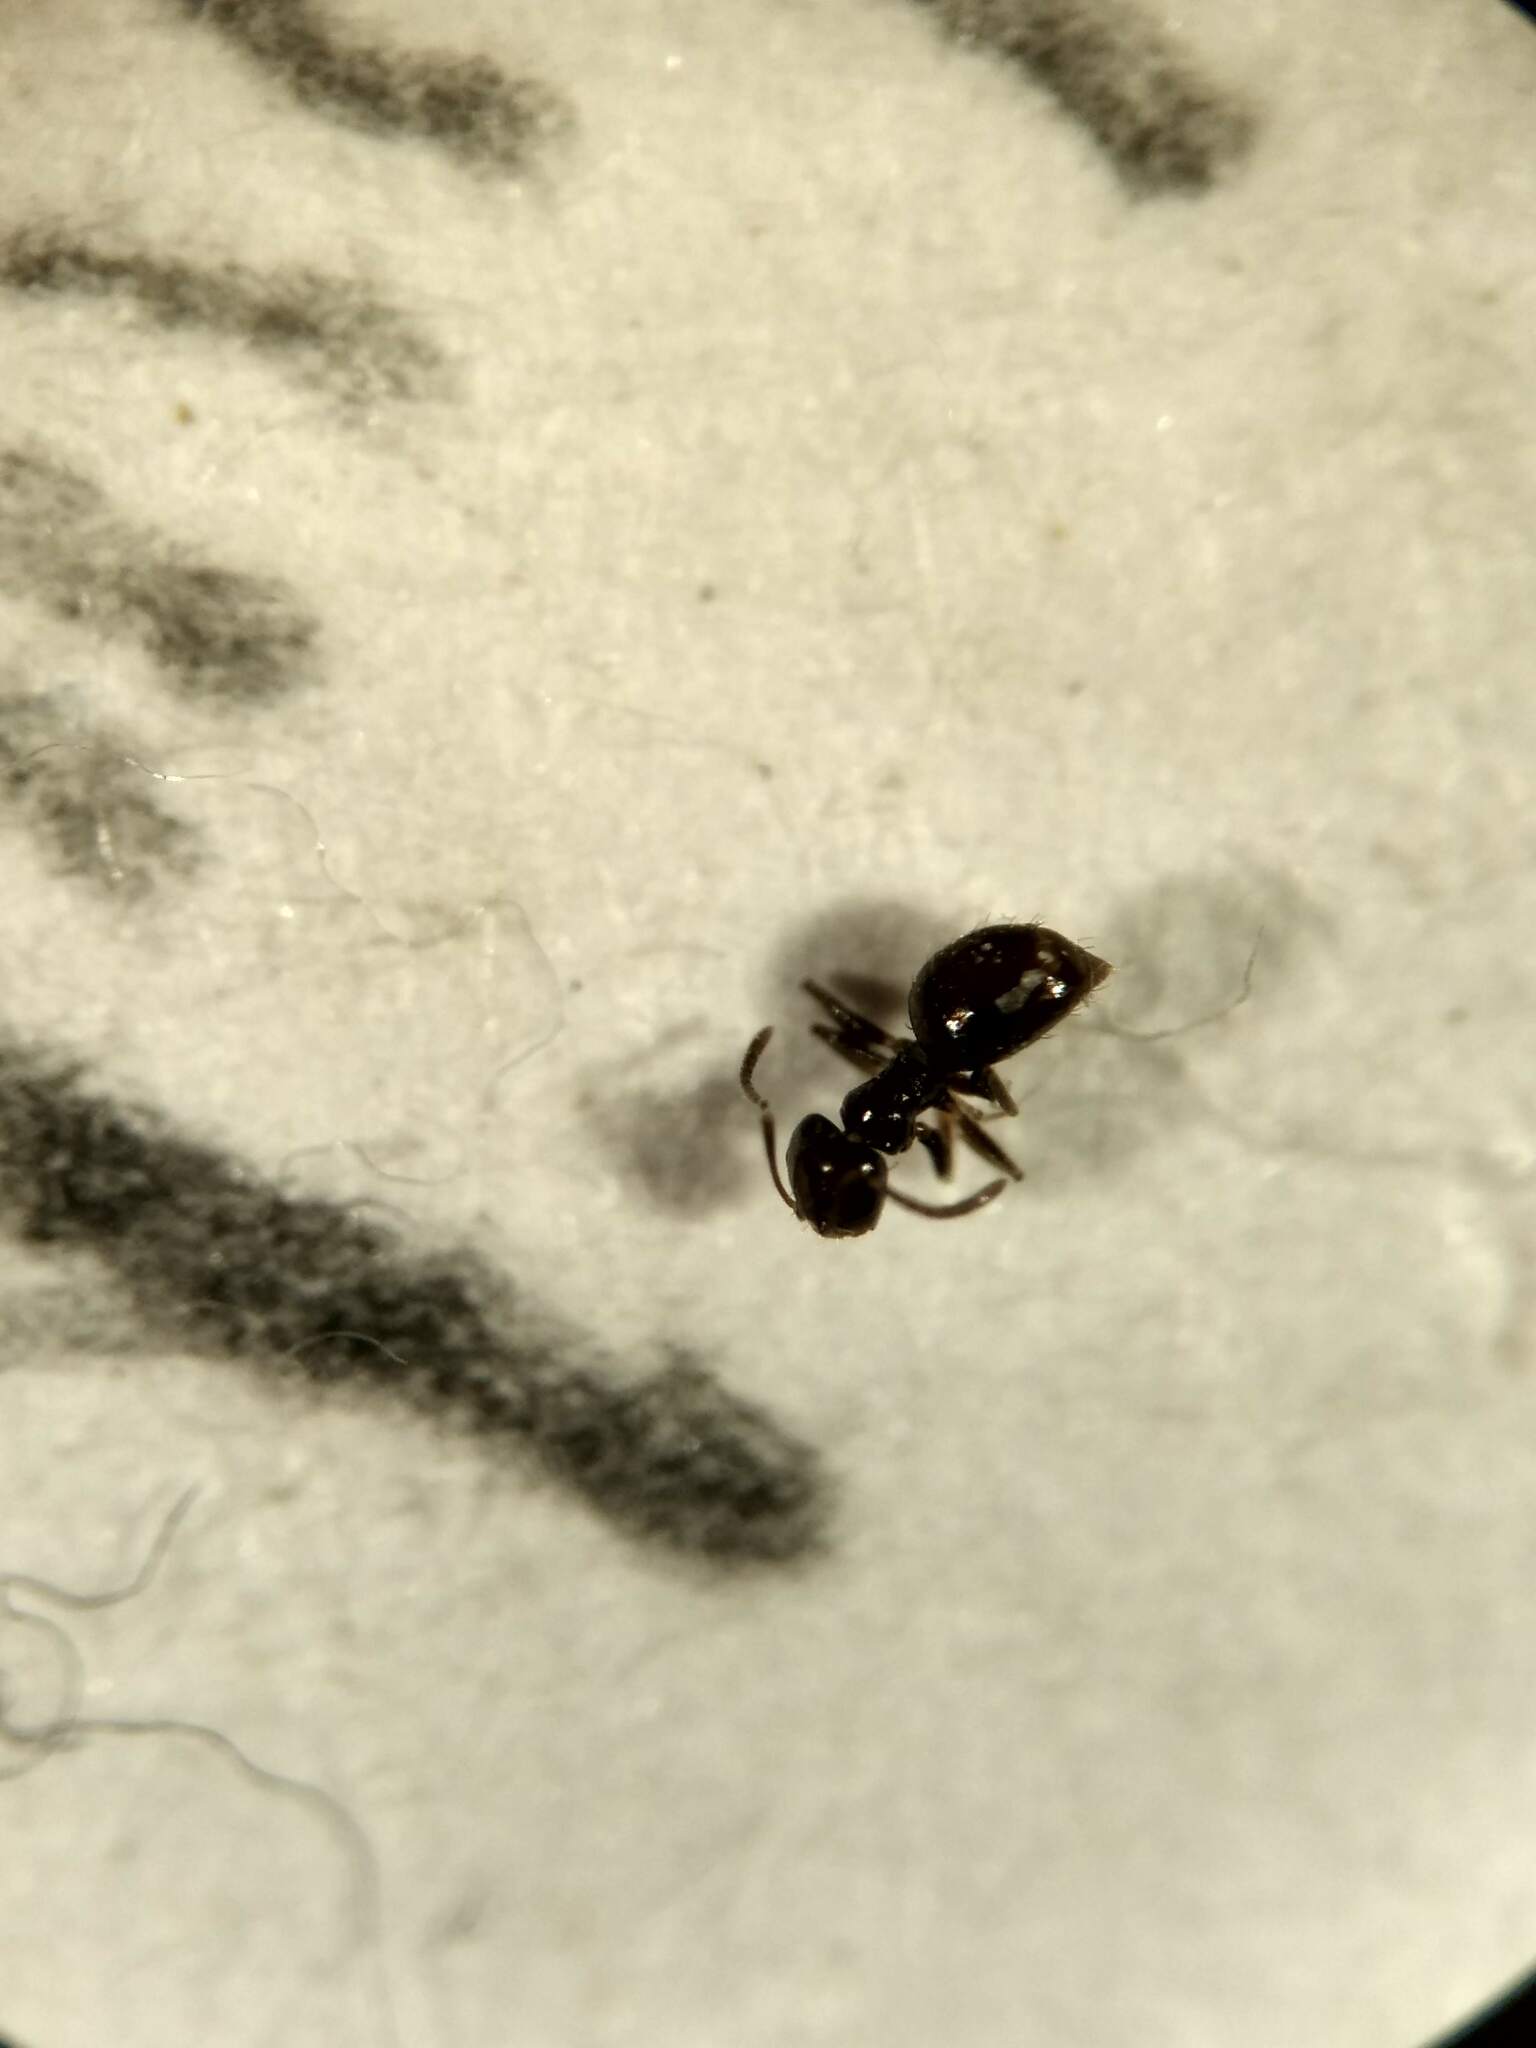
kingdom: Animalia
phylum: Arthropoda
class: Insecta
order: Hymenoptera
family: Formicidae
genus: Brachymyrmex
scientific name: Brachymyrmex patagonicus
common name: Dark rover ant
